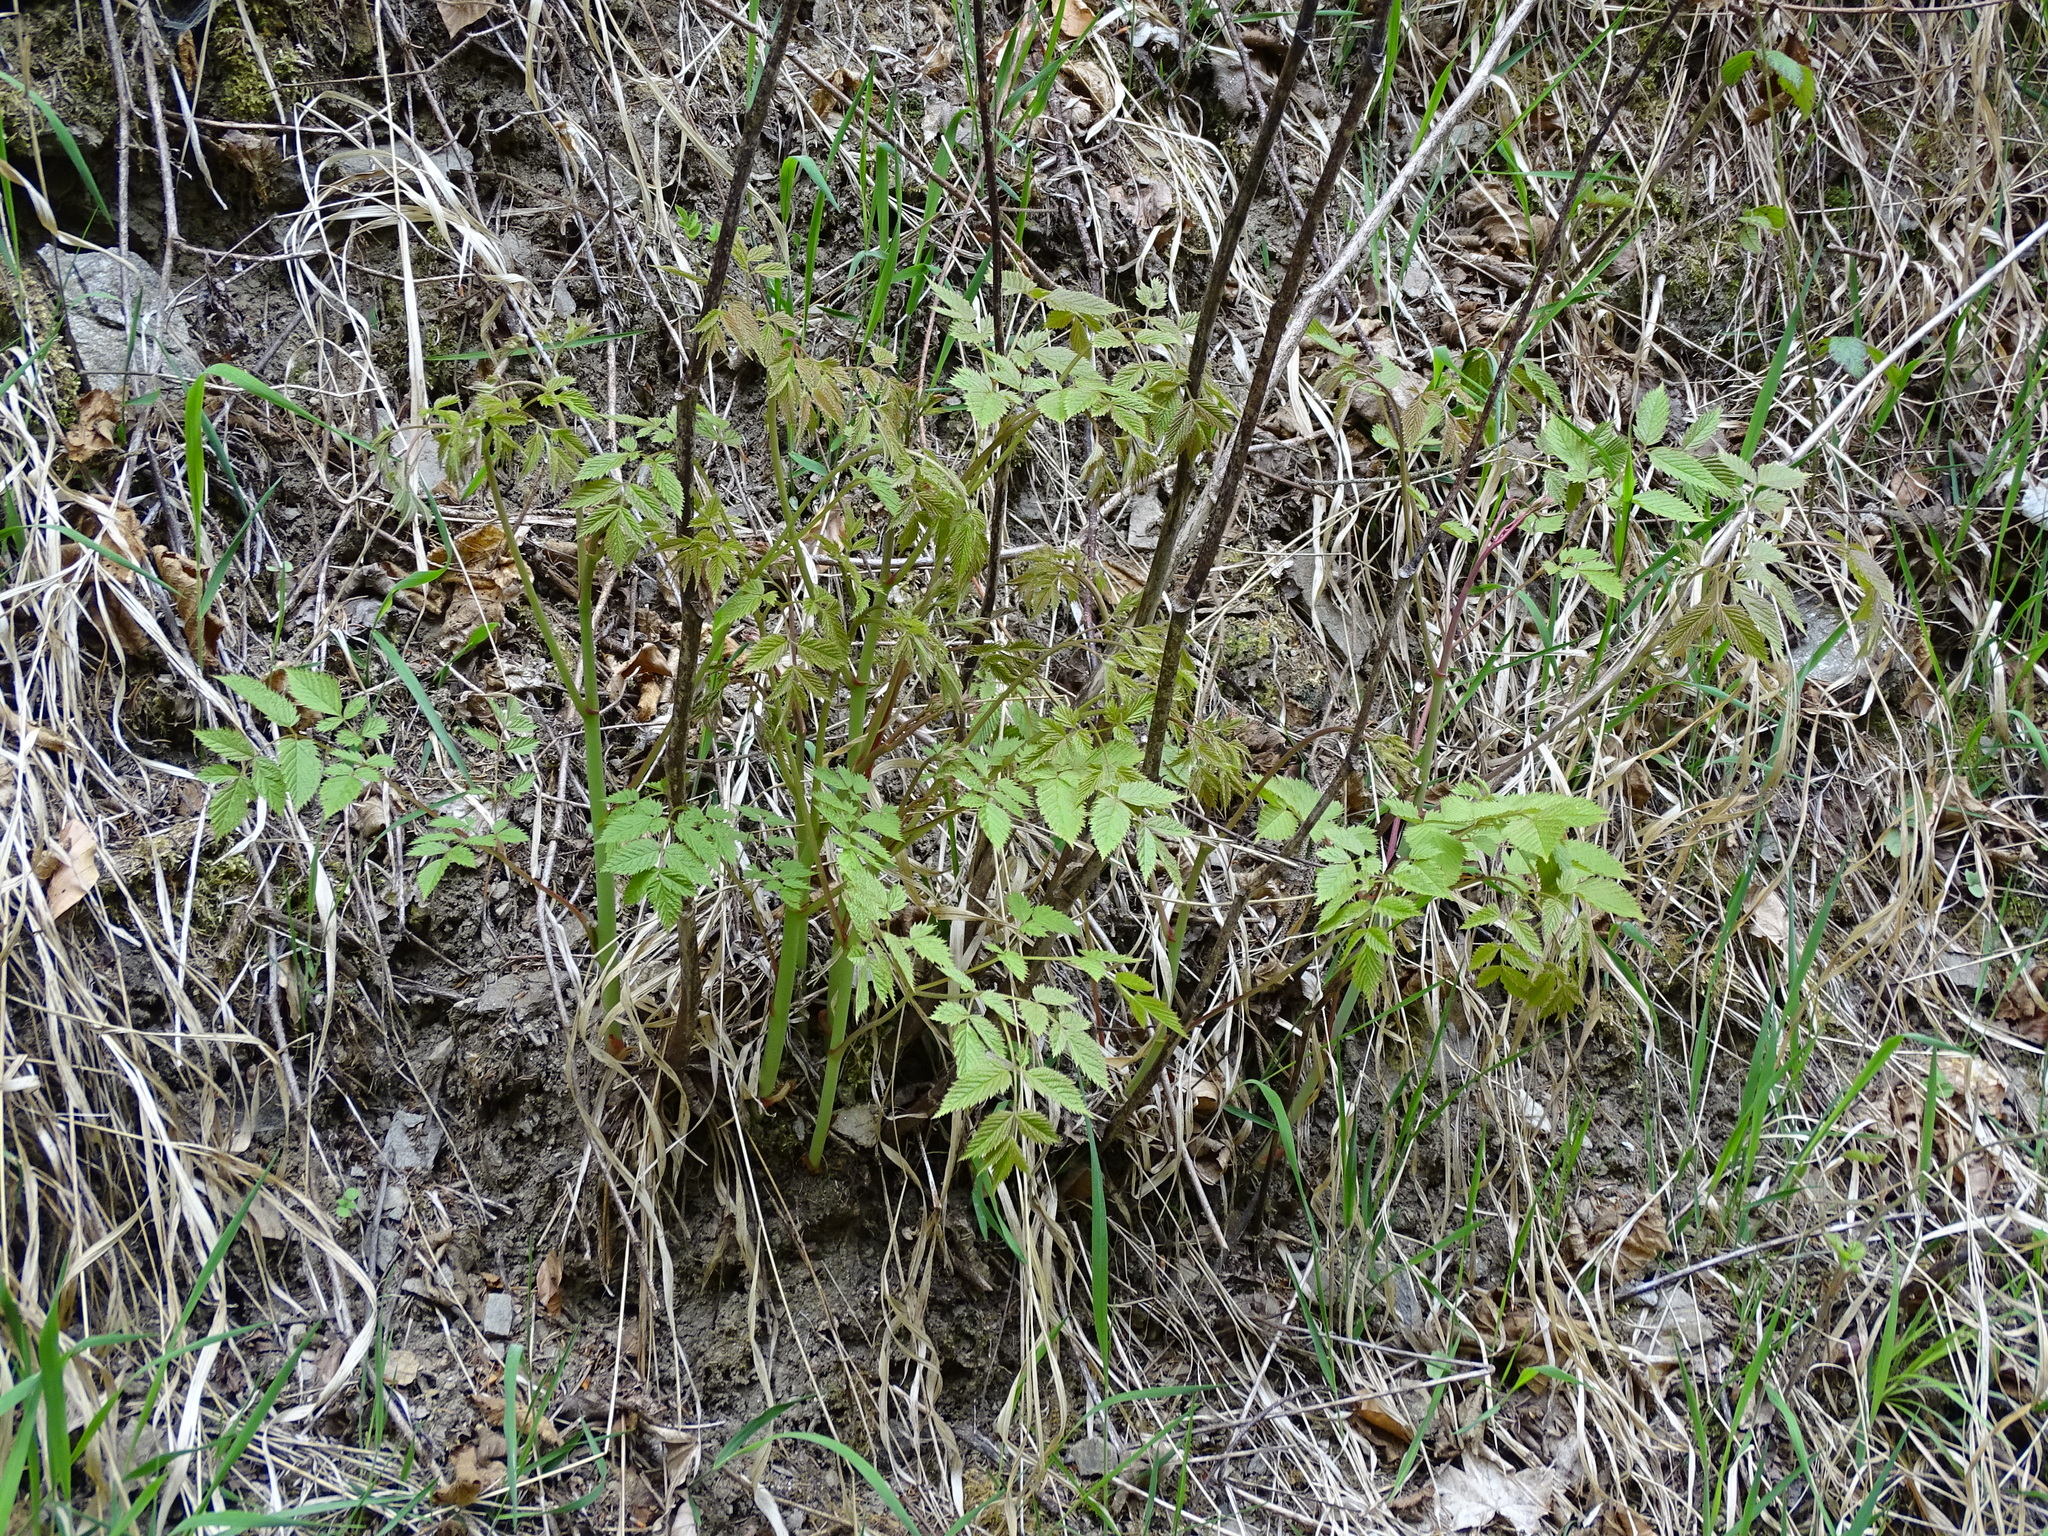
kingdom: Plantae
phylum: Tracheophyta
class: Magnoliopsida
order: Rosales
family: Rosaceae
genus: Aruncus
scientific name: Aruncus dioicus
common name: Buck's-beard
